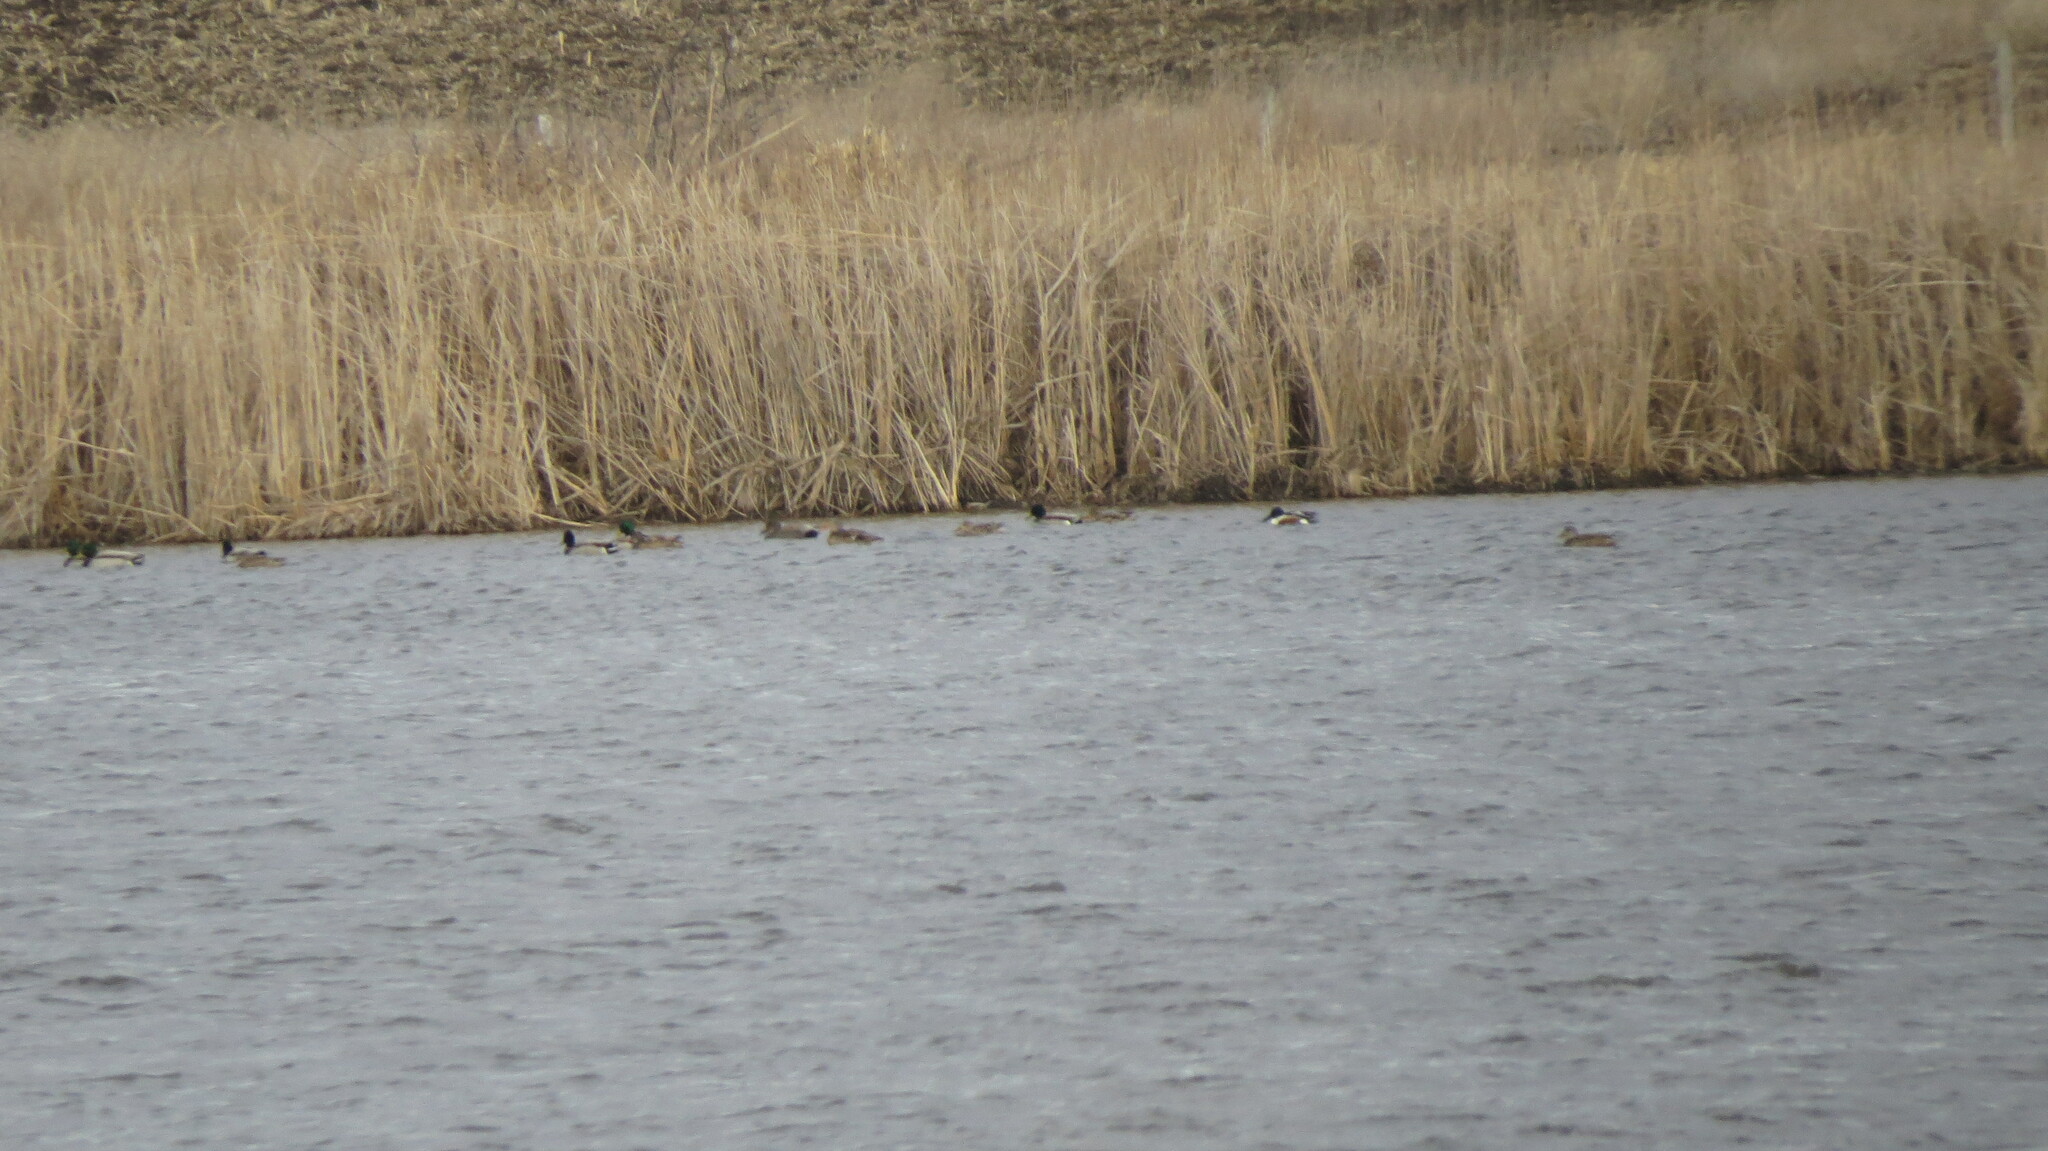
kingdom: Animalia
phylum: Chordata
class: Aves
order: Anseriformes
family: Anatidae
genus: Spatula
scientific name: Spatula clypeata
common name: Northern shoveler
